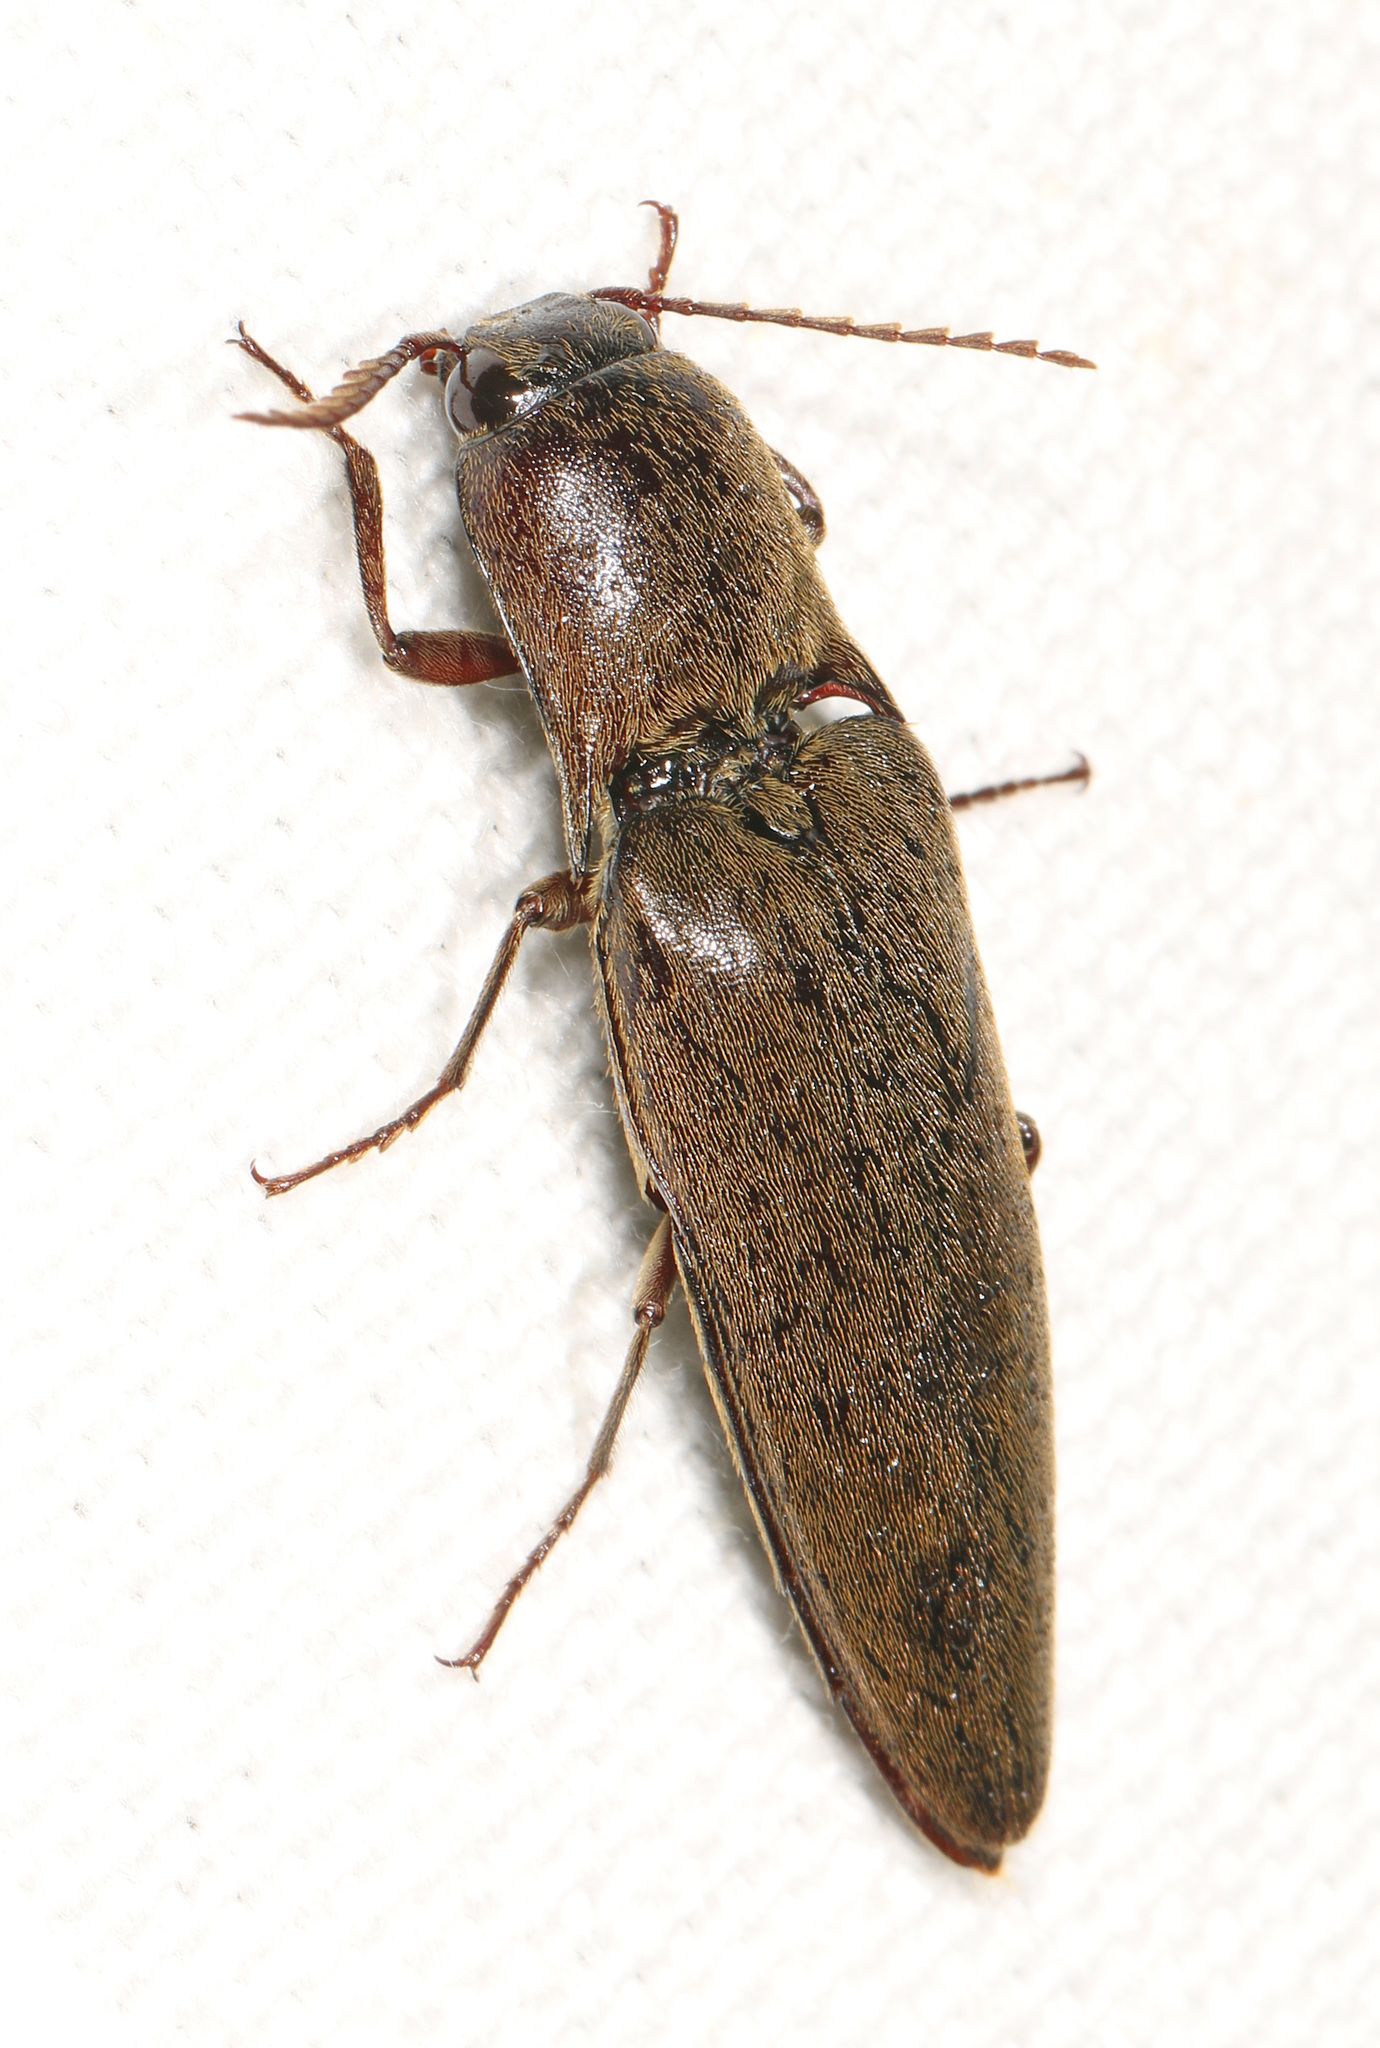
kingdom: Animalia
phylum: Arthropoda
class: Insecta
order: Coleoptera
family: Elateridae
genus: Orthostethus
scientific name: Orthostethus infuscatus
